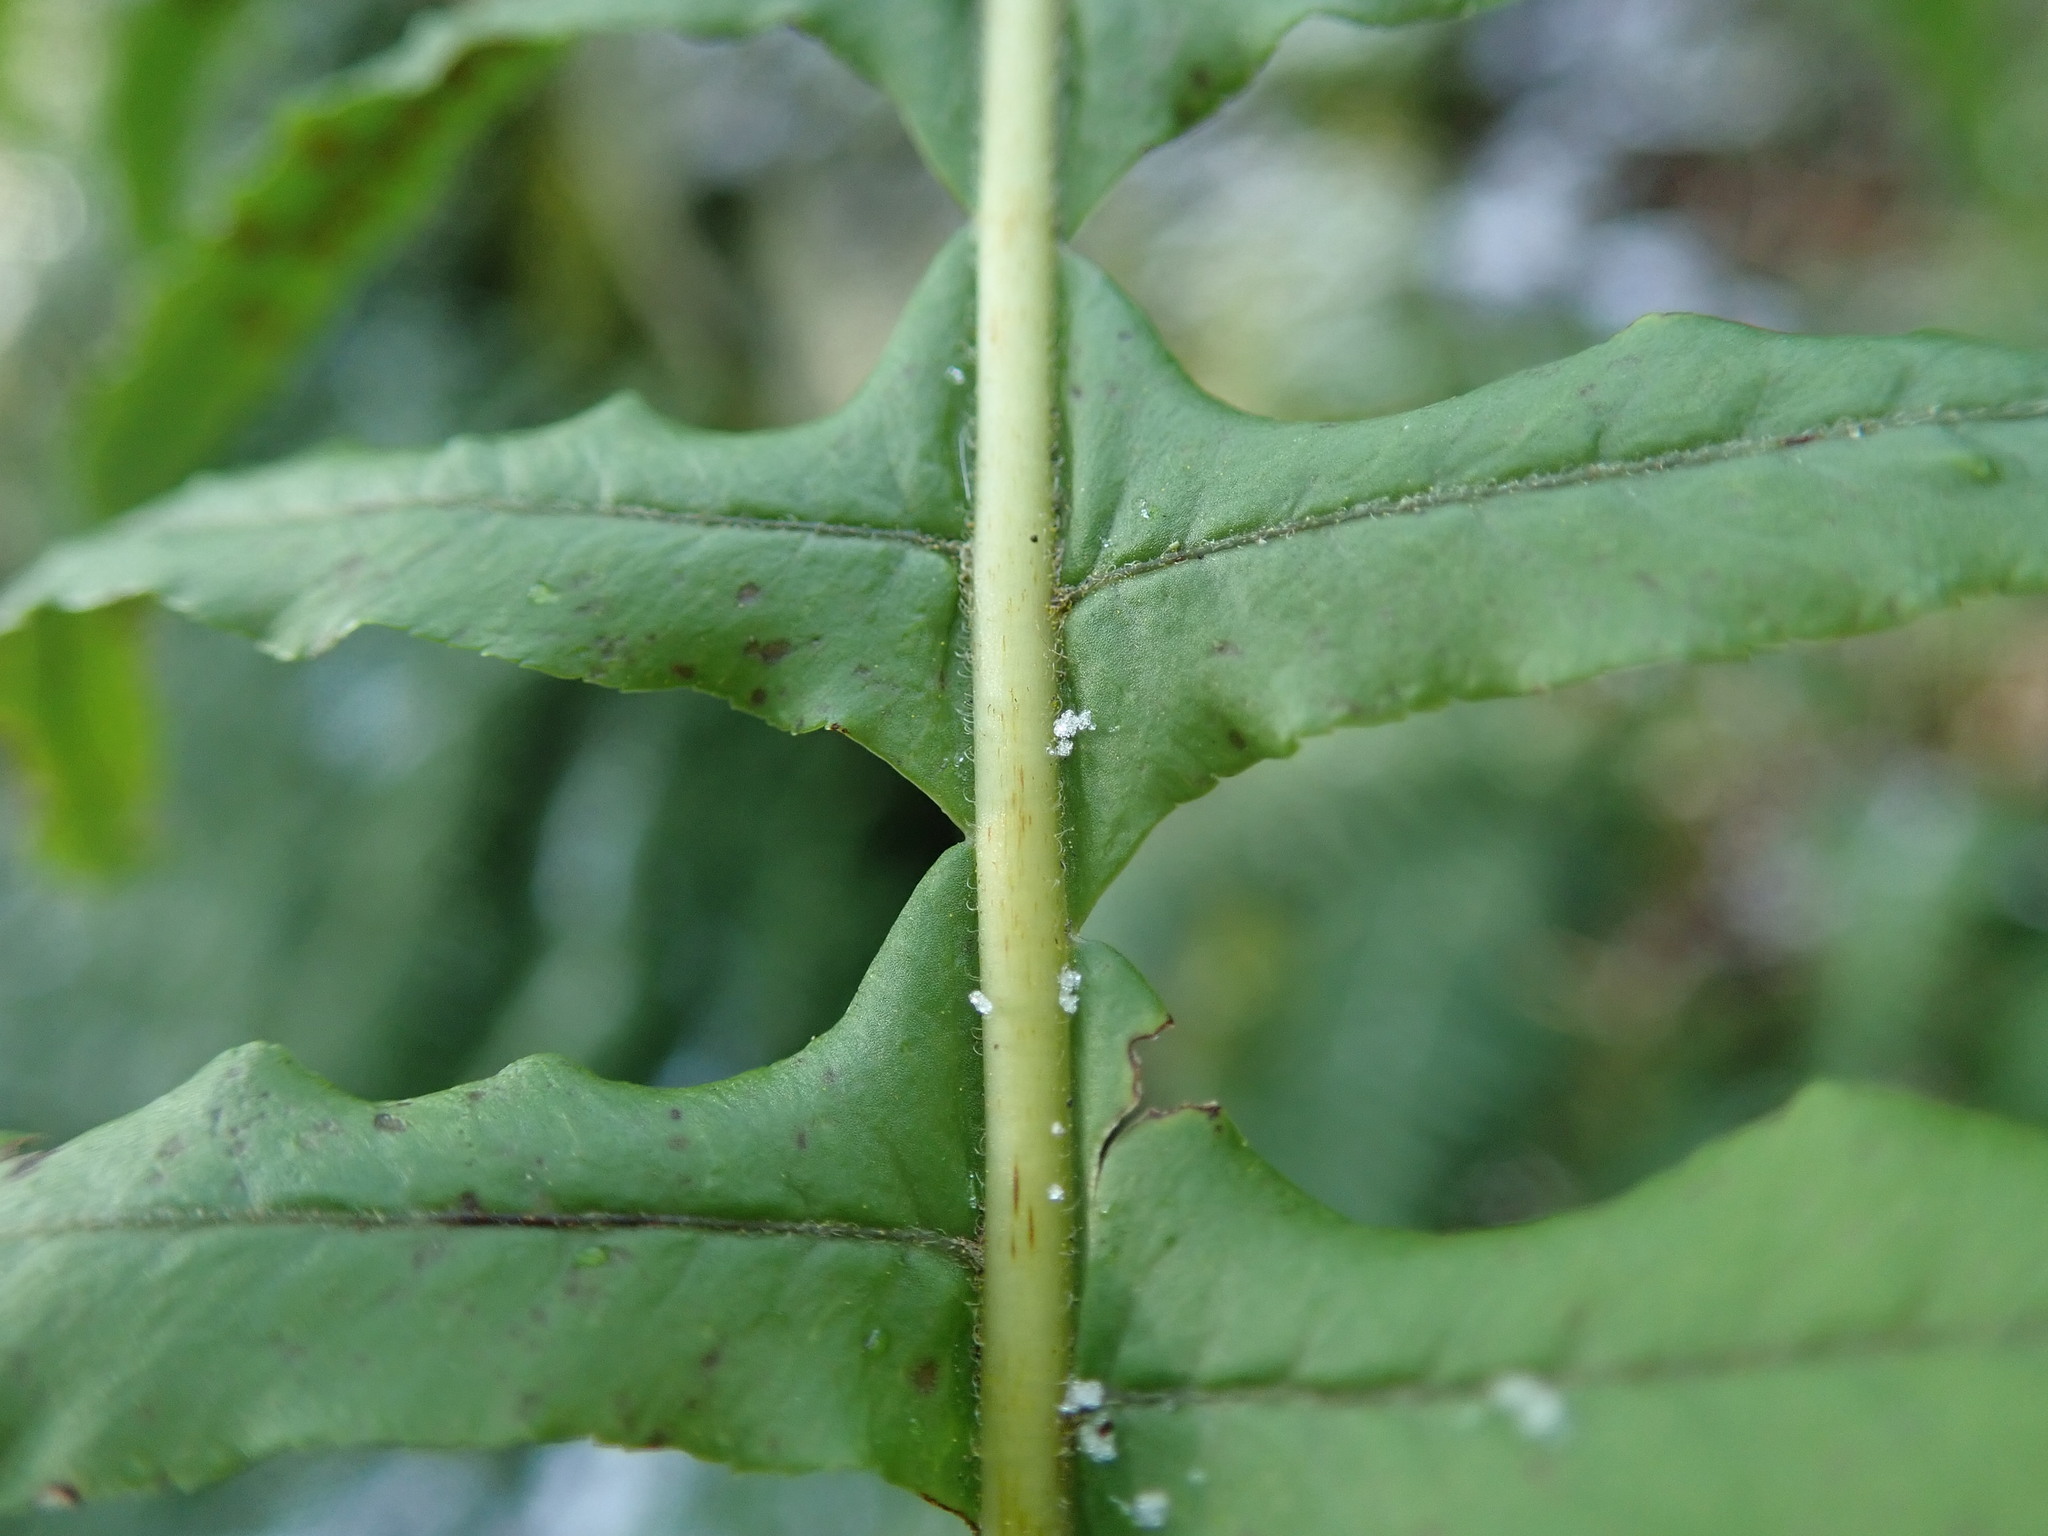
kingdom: Plantae
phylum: Tracheophyta
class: Polypodiopsida
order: Polypodiales
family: Polypodiaceae
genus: Polypodium
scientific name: Polypodium glycyrrhiza
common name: Licorice fern
